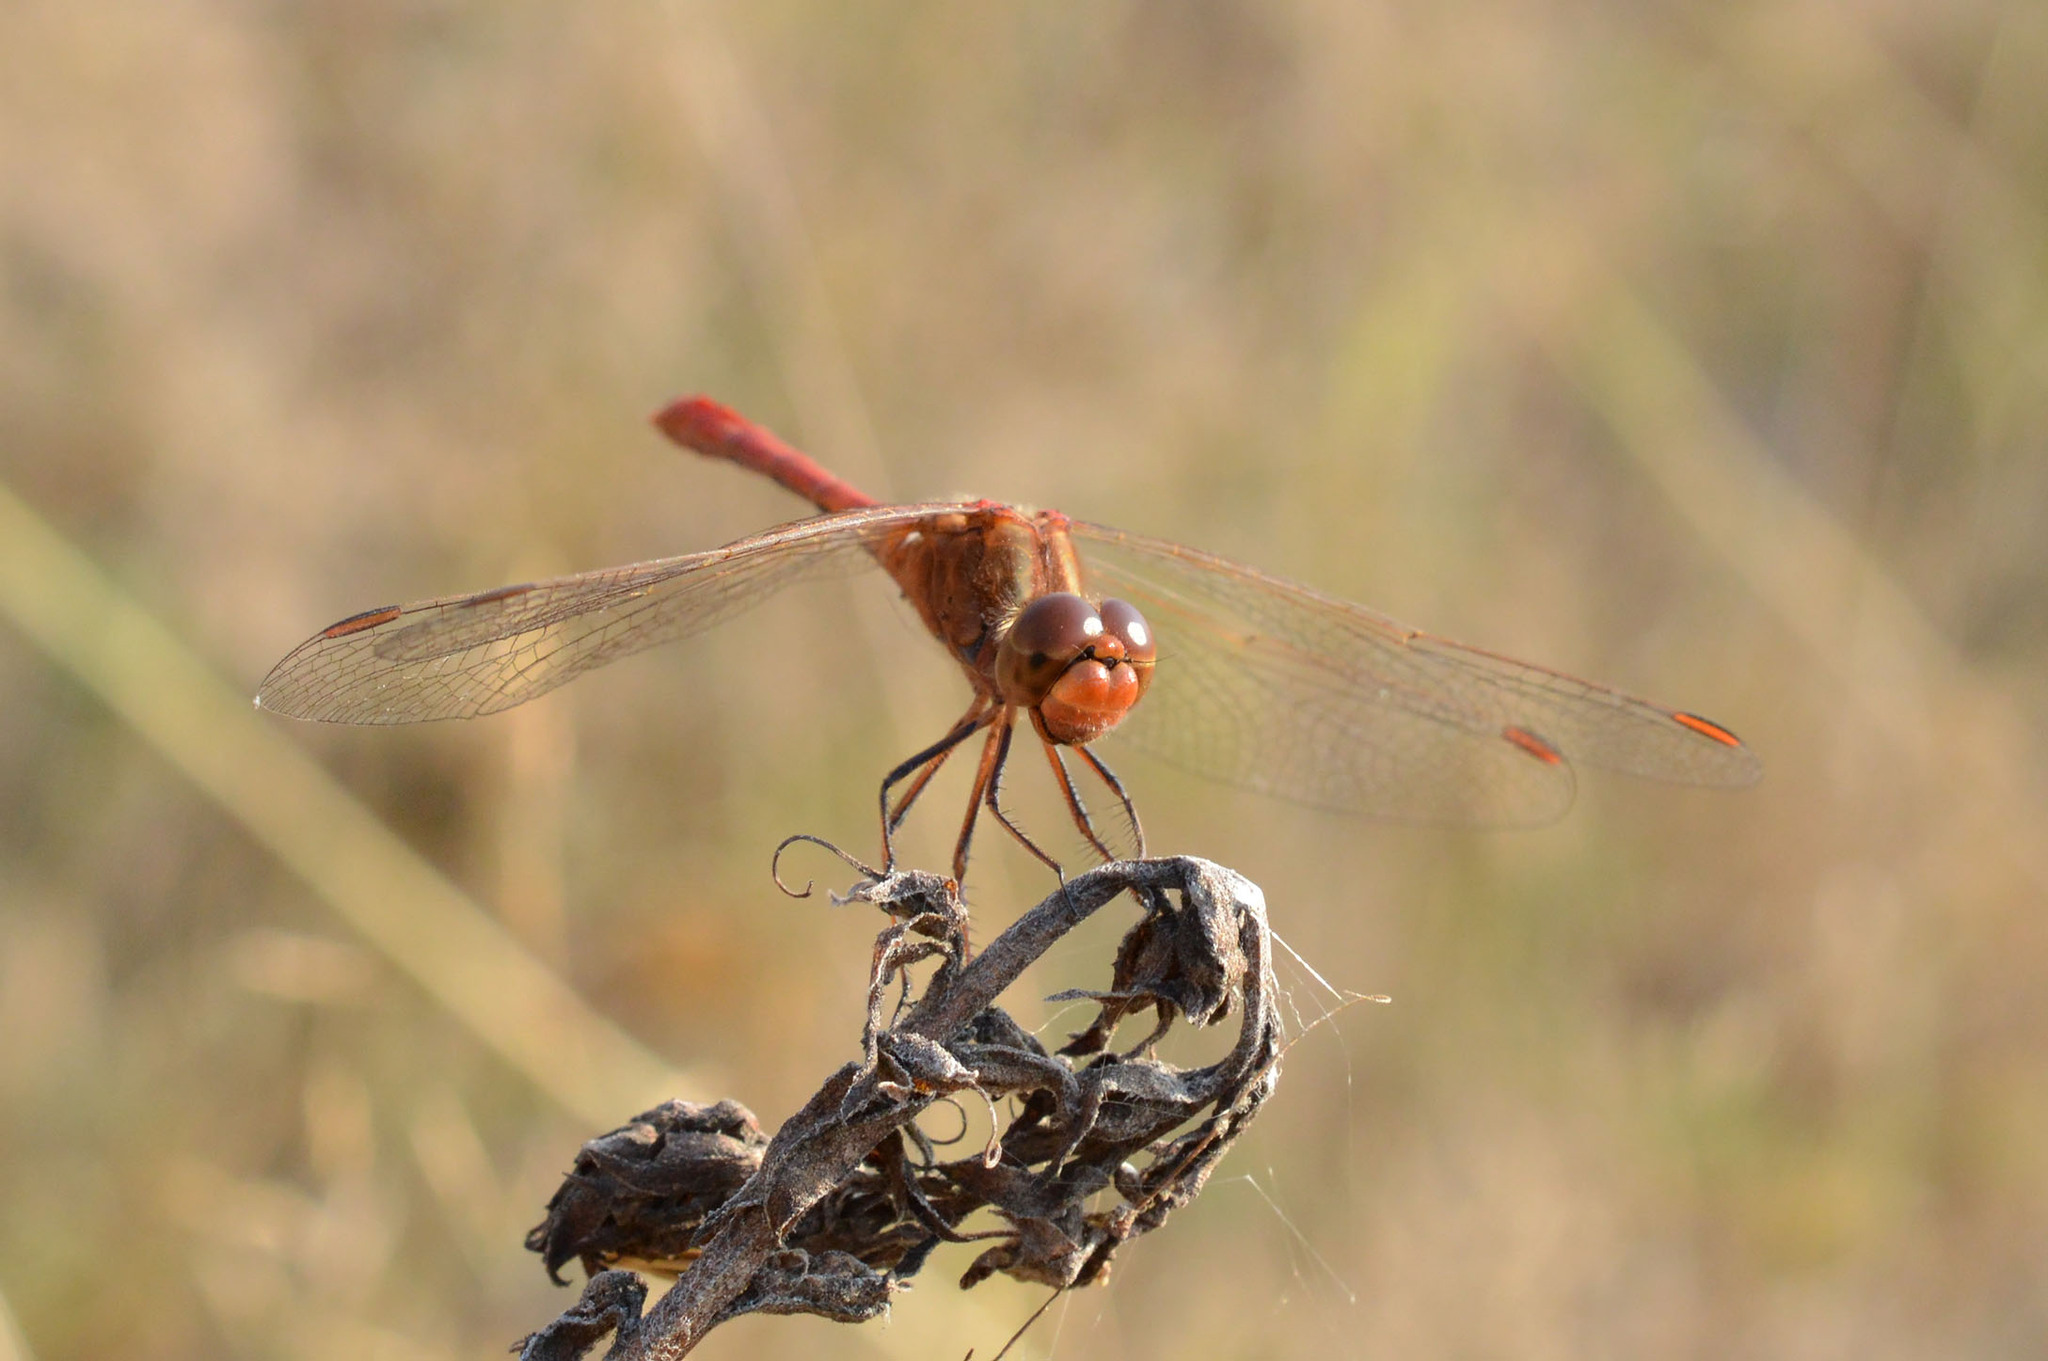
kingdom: Animalia
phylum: Arthropoda
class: Insecta
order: Odonata
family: Libellulidae
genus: Sympetrum
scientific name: Sympetrum meridionale
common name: Southern darter
